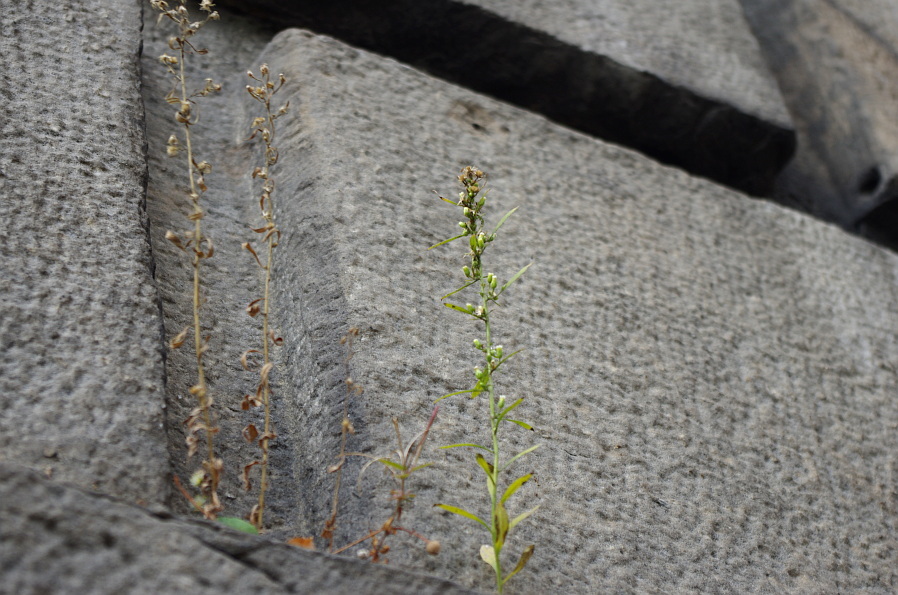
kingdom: Plantae
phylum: Tracheophyta
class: Magnoliopsida
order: Asterales
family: Asteraceae
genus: Erigeron
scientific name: Erigeron canadensis
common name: Canadian fleabane
